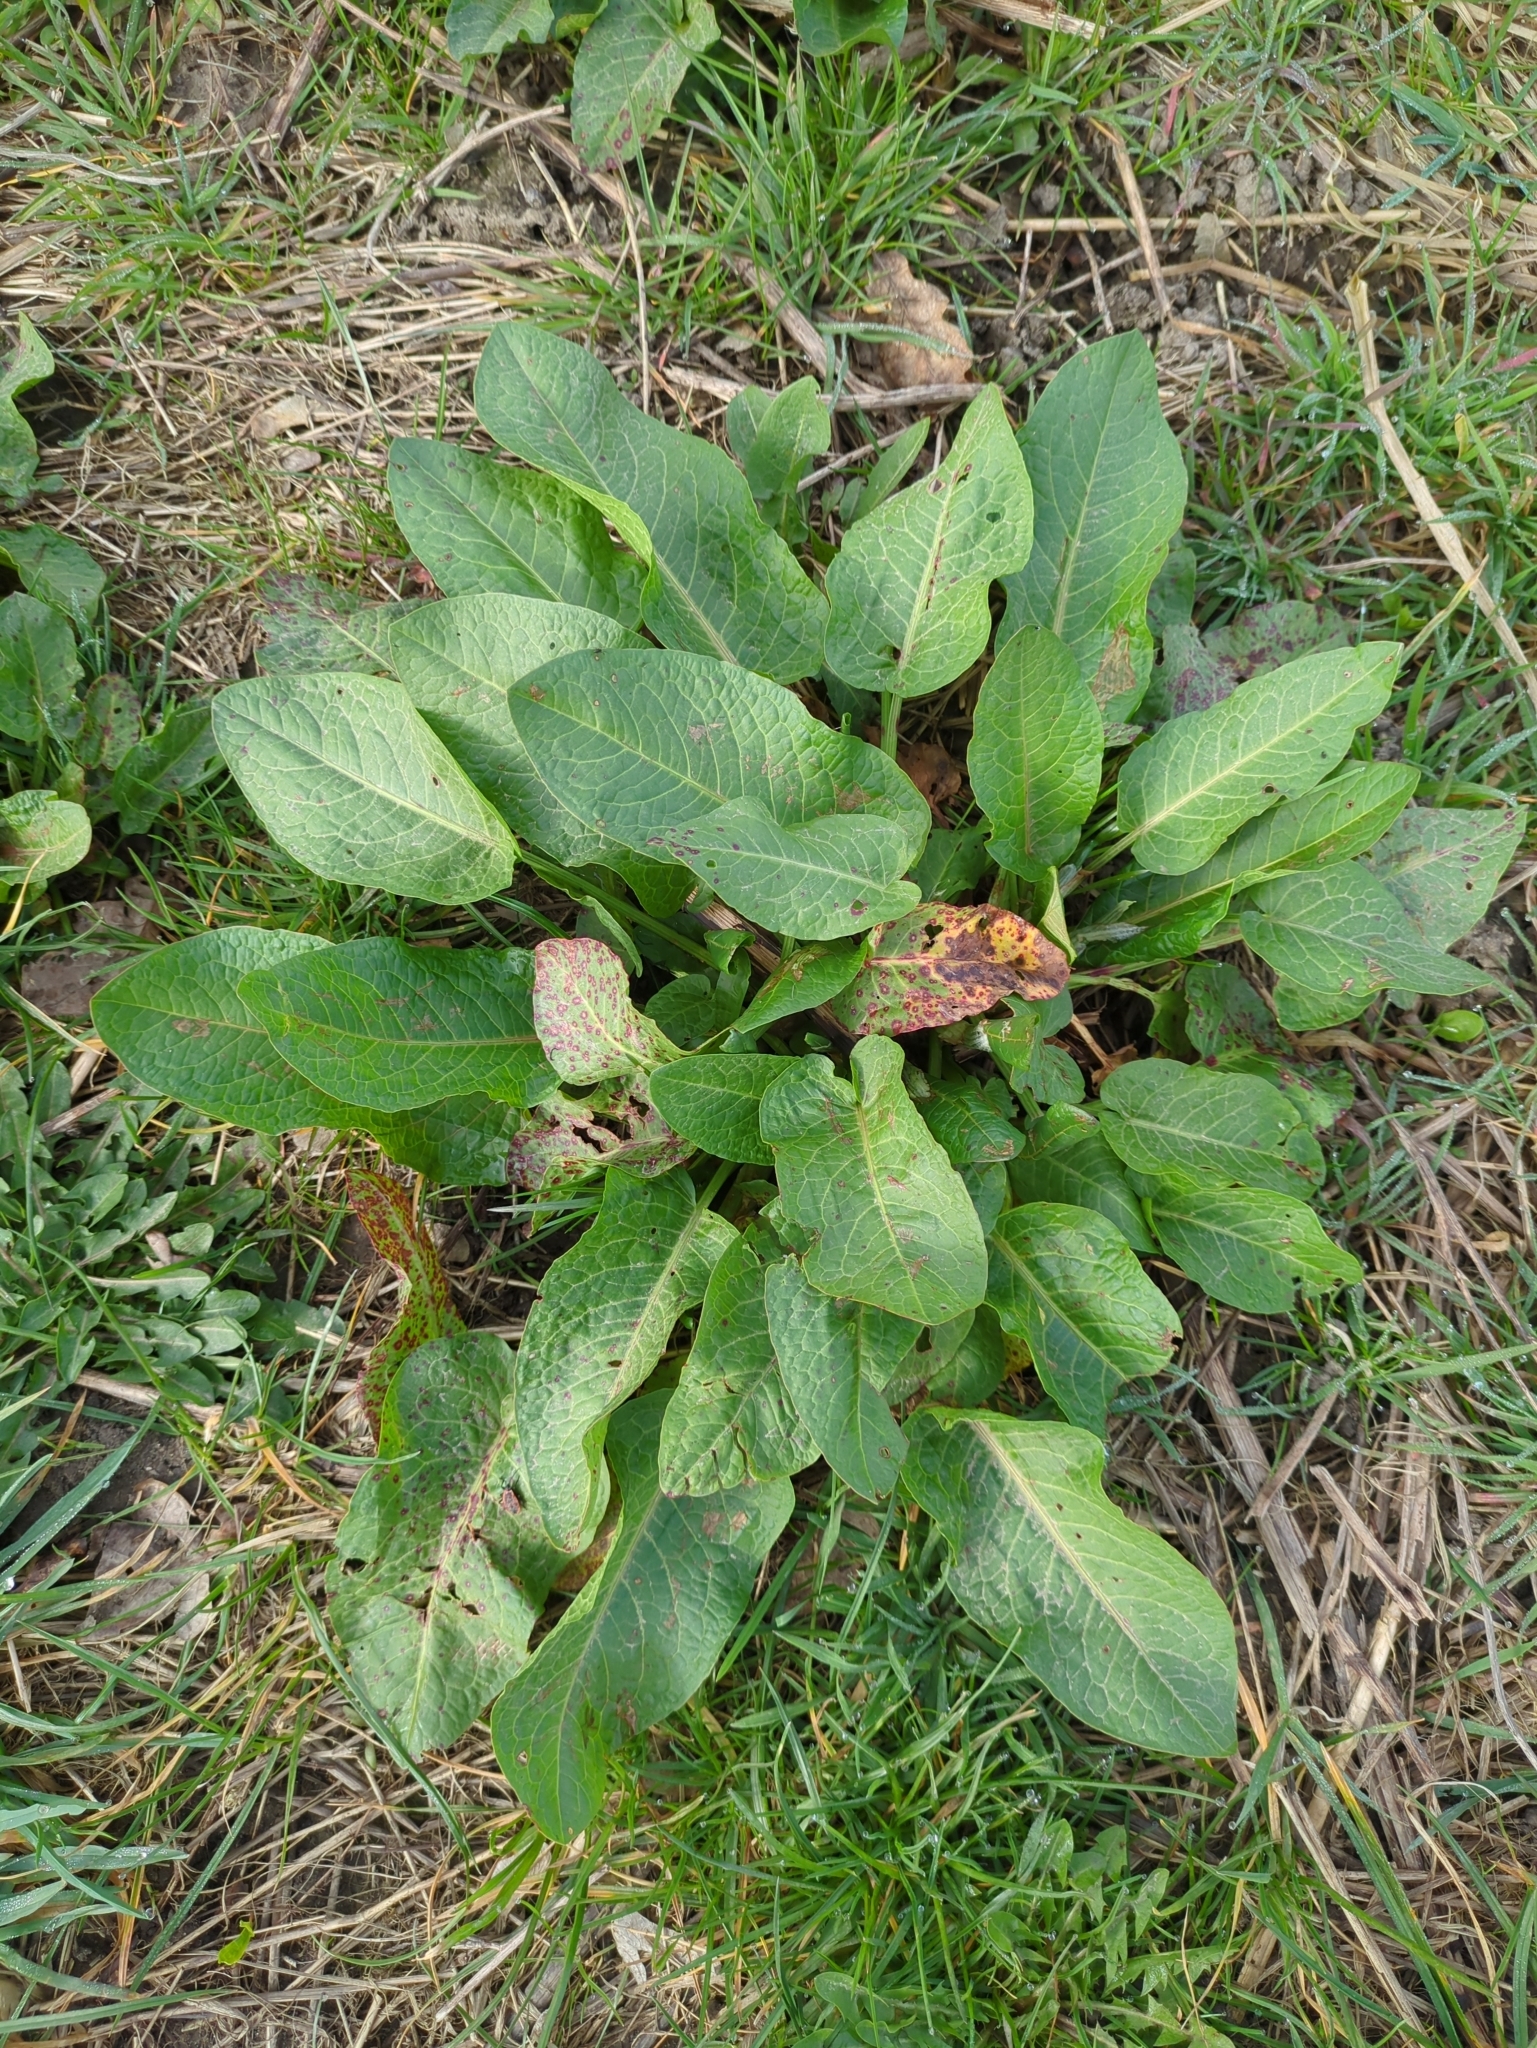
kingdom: Plantae
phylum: Tracheophyta
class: Magnoliopsida
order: Caryophyllales
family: Polygonaceae
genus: Rumex
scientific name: Rumex obtusifolius
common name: Bitter dock
